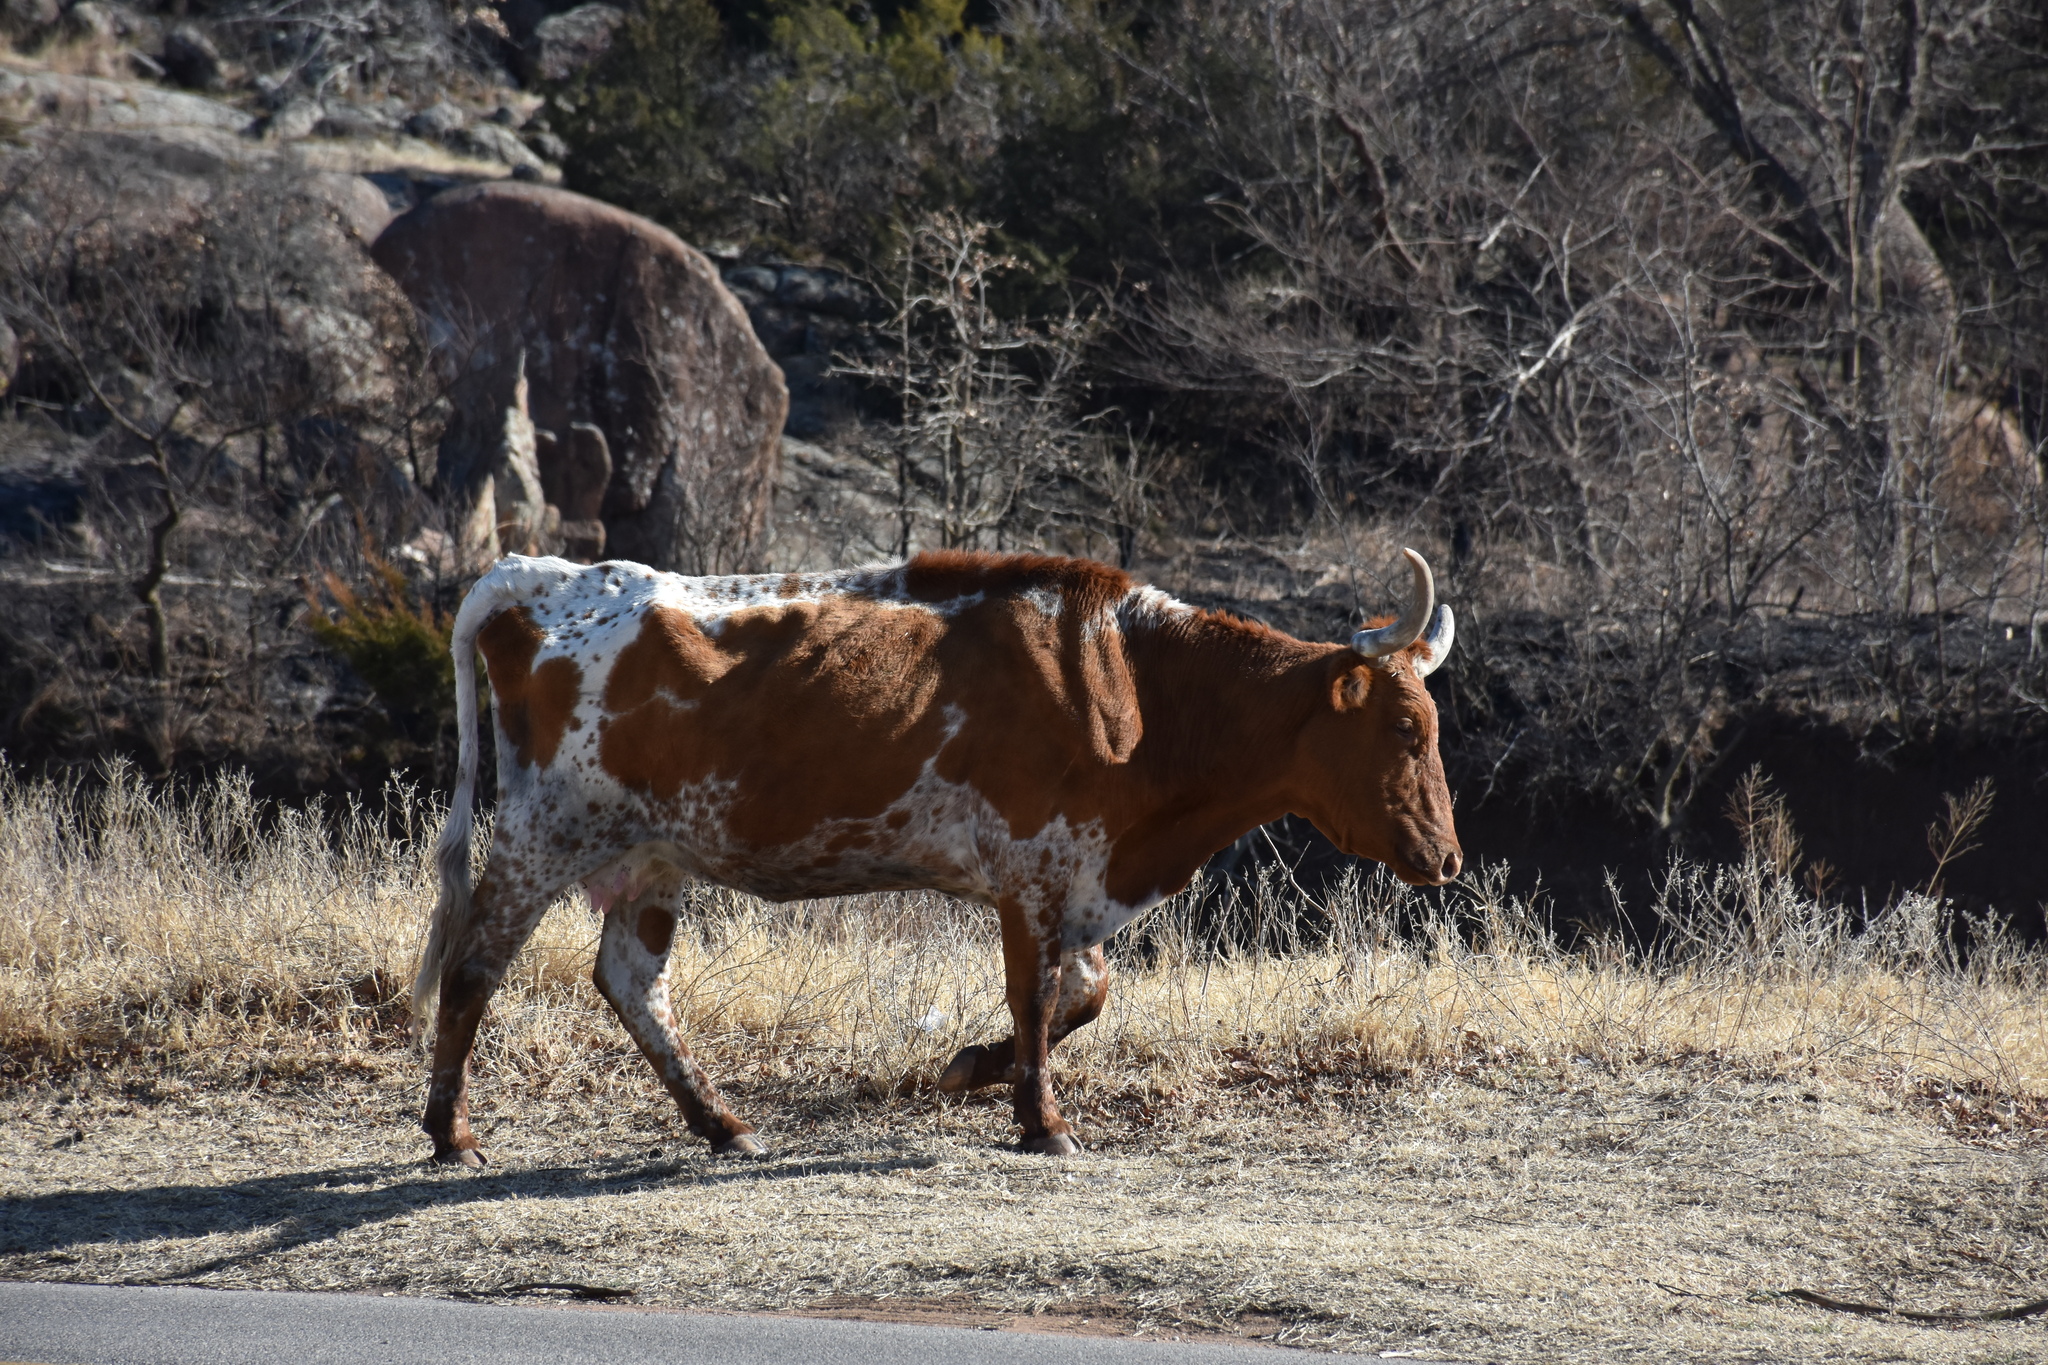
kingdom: Animalia
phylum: Chordata
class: Mammalia
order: Artiodactyla
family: Bovidae
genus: Bos
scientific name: Bos taurus
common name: Domesticated cattle
